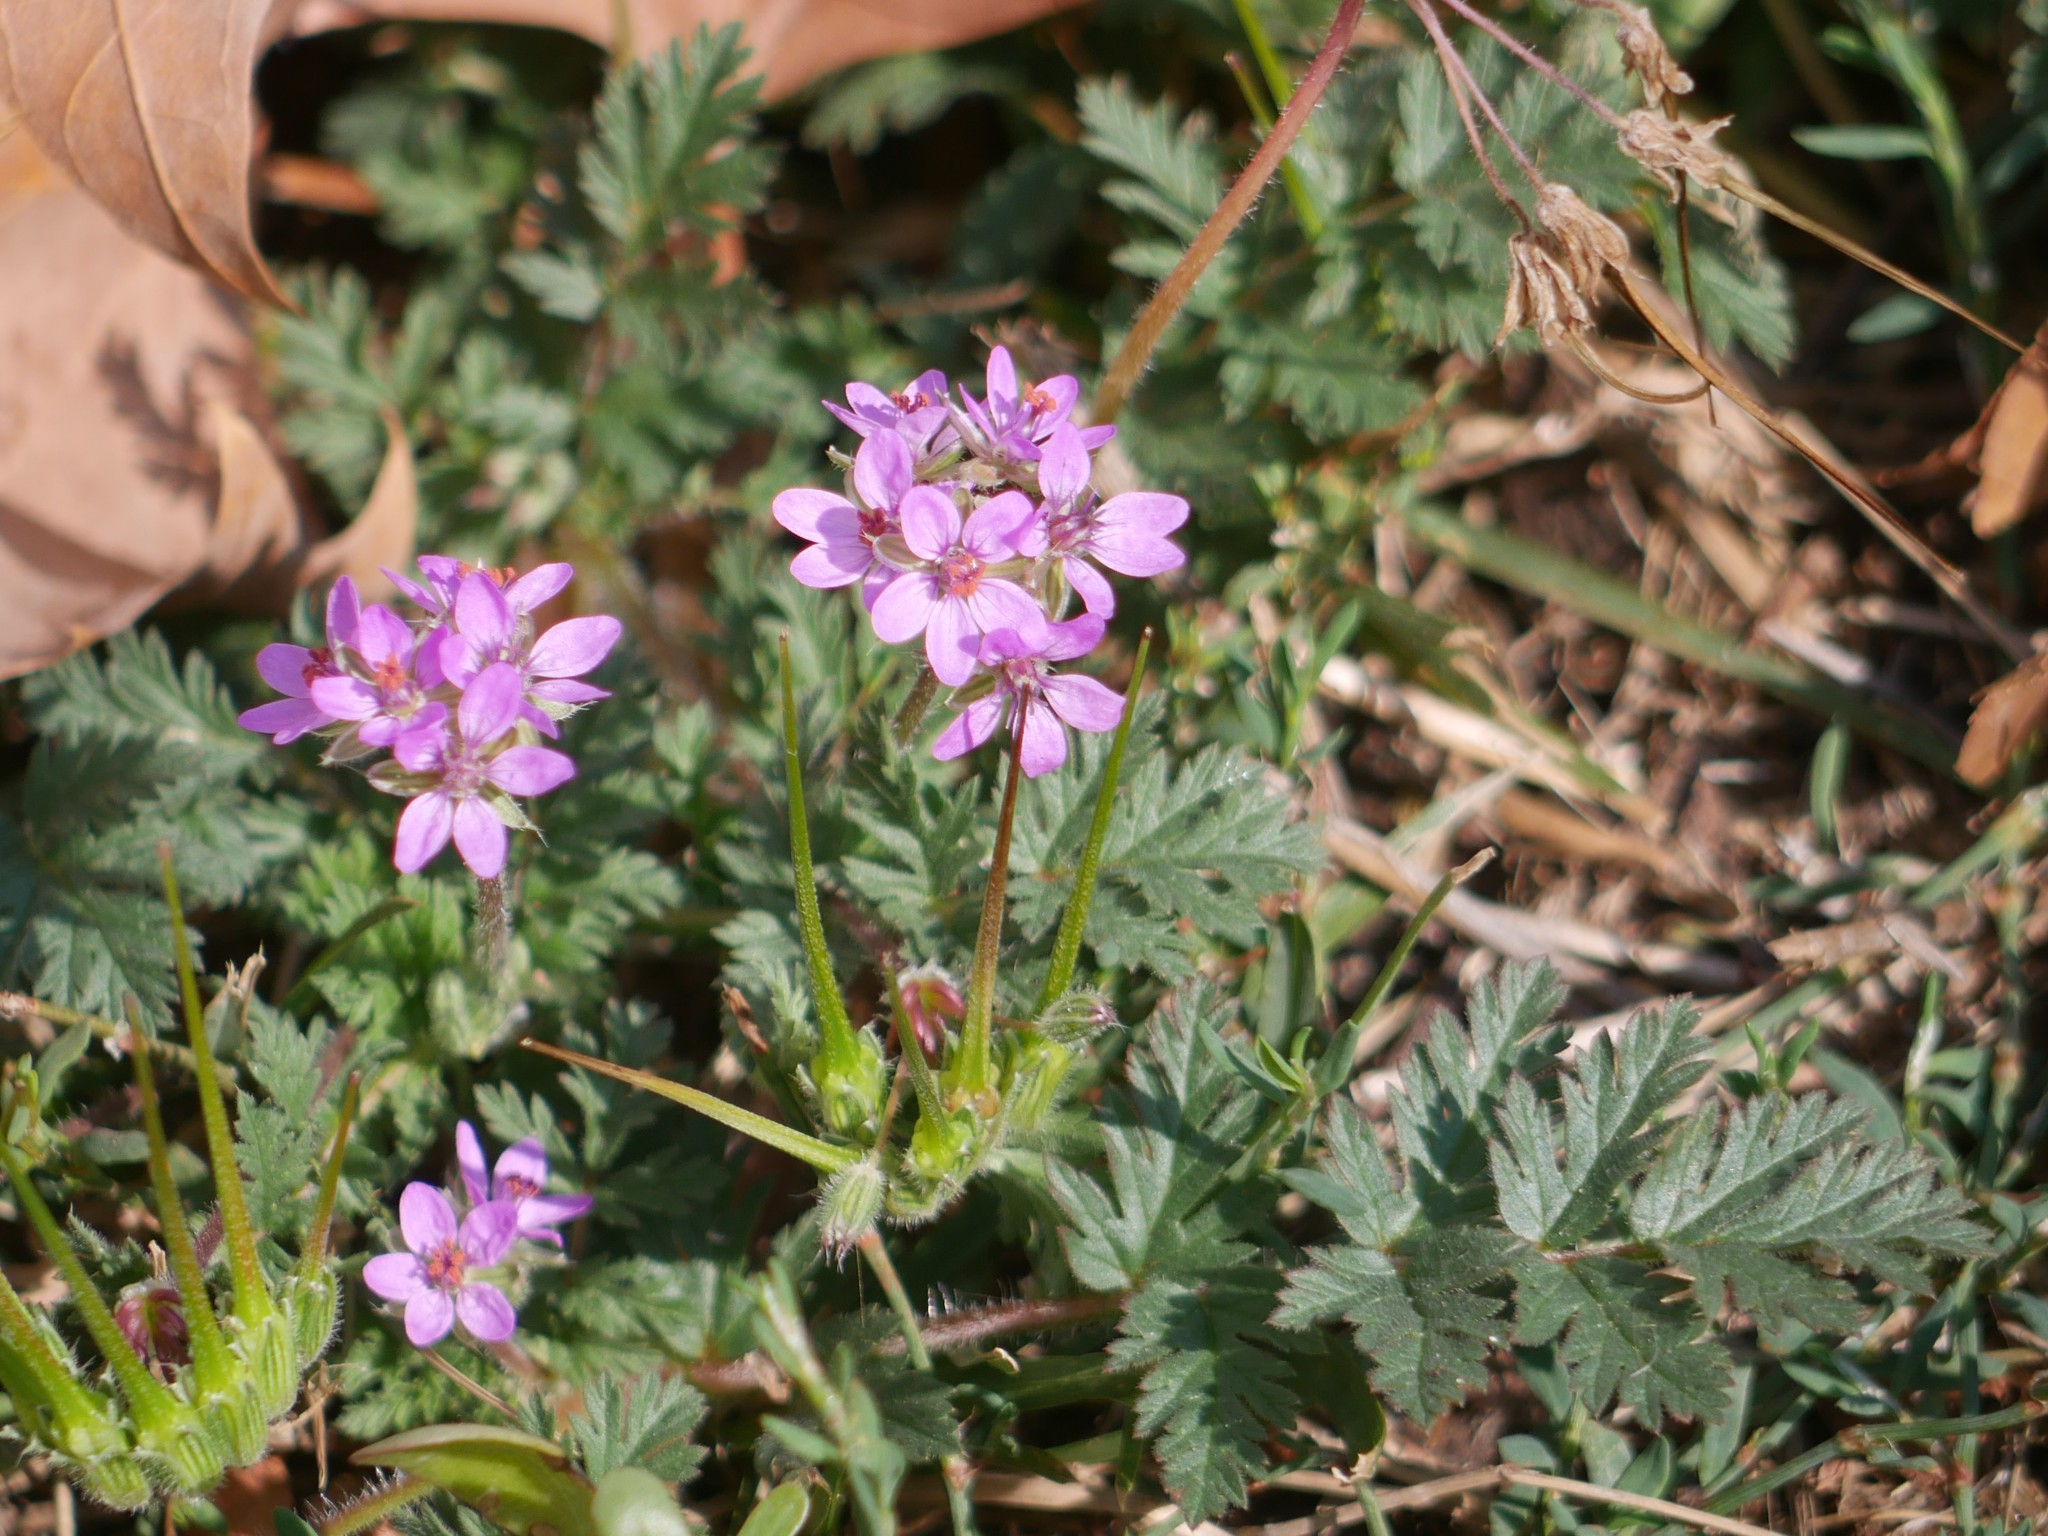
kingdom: Plantae
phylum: Tracheophyta
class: Magnoliopsida
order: Geraniales
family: Geraniaceae
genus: Erodium
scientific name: Erodium cicutarium
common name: Common stork's-bill
